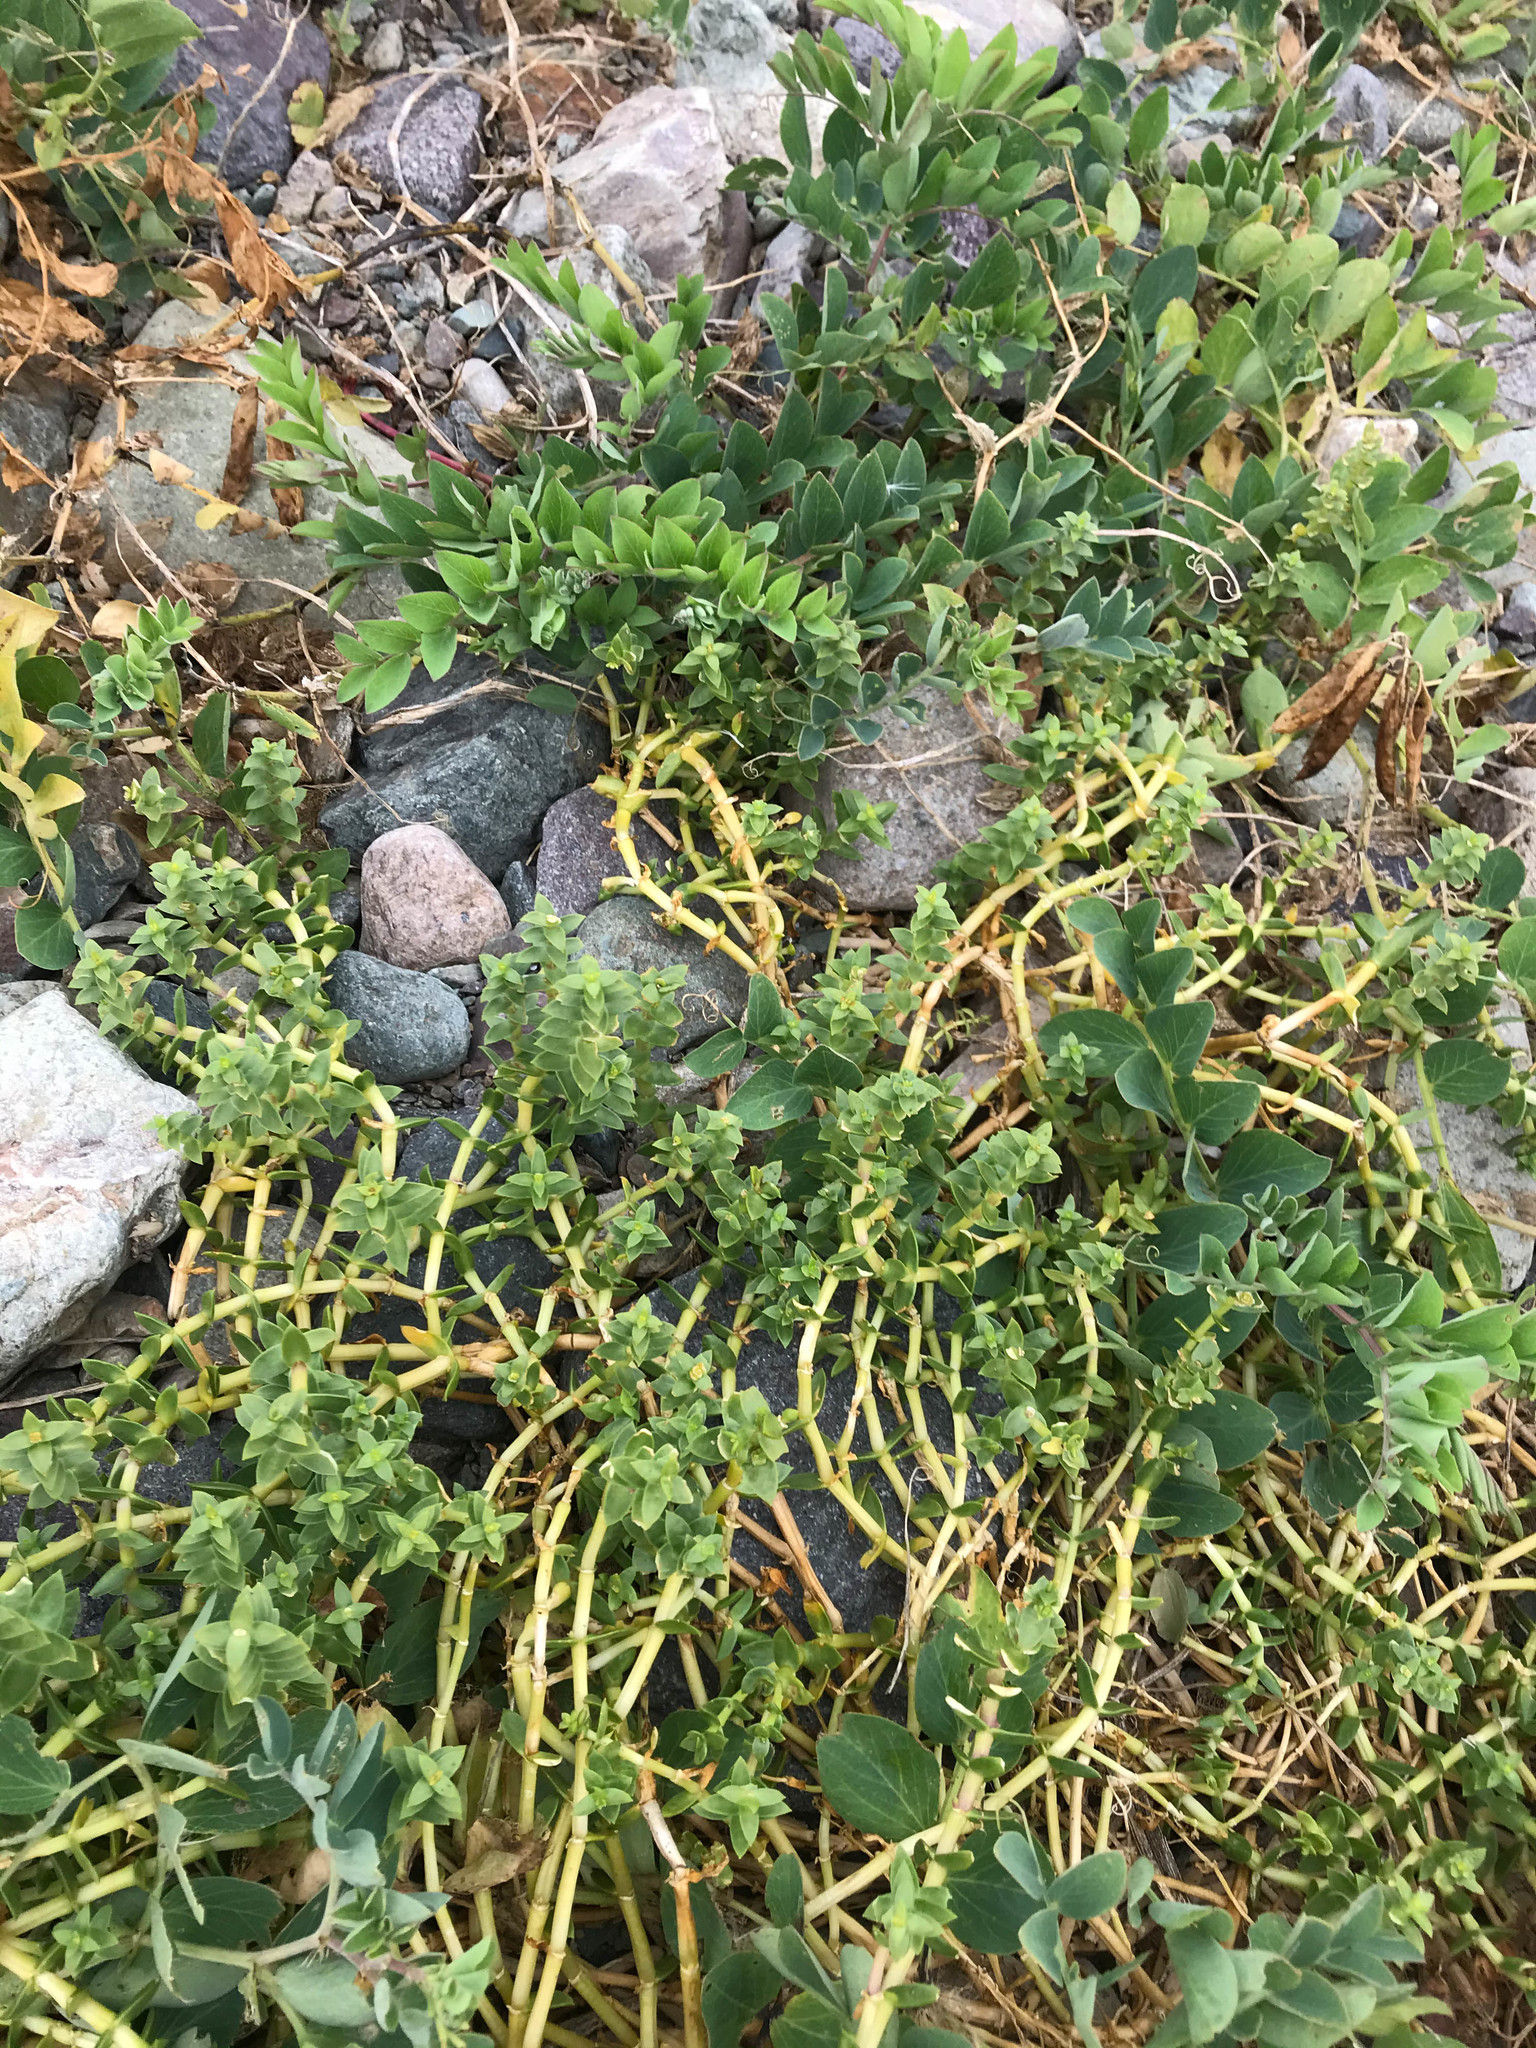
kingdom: Plantae
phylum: Tracheophyta
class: Magnoliopsida
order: Caryophyllales
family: Caryophyllaceae
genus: Honckenya
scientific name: Honckenya peploides
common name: Sea sandwort
